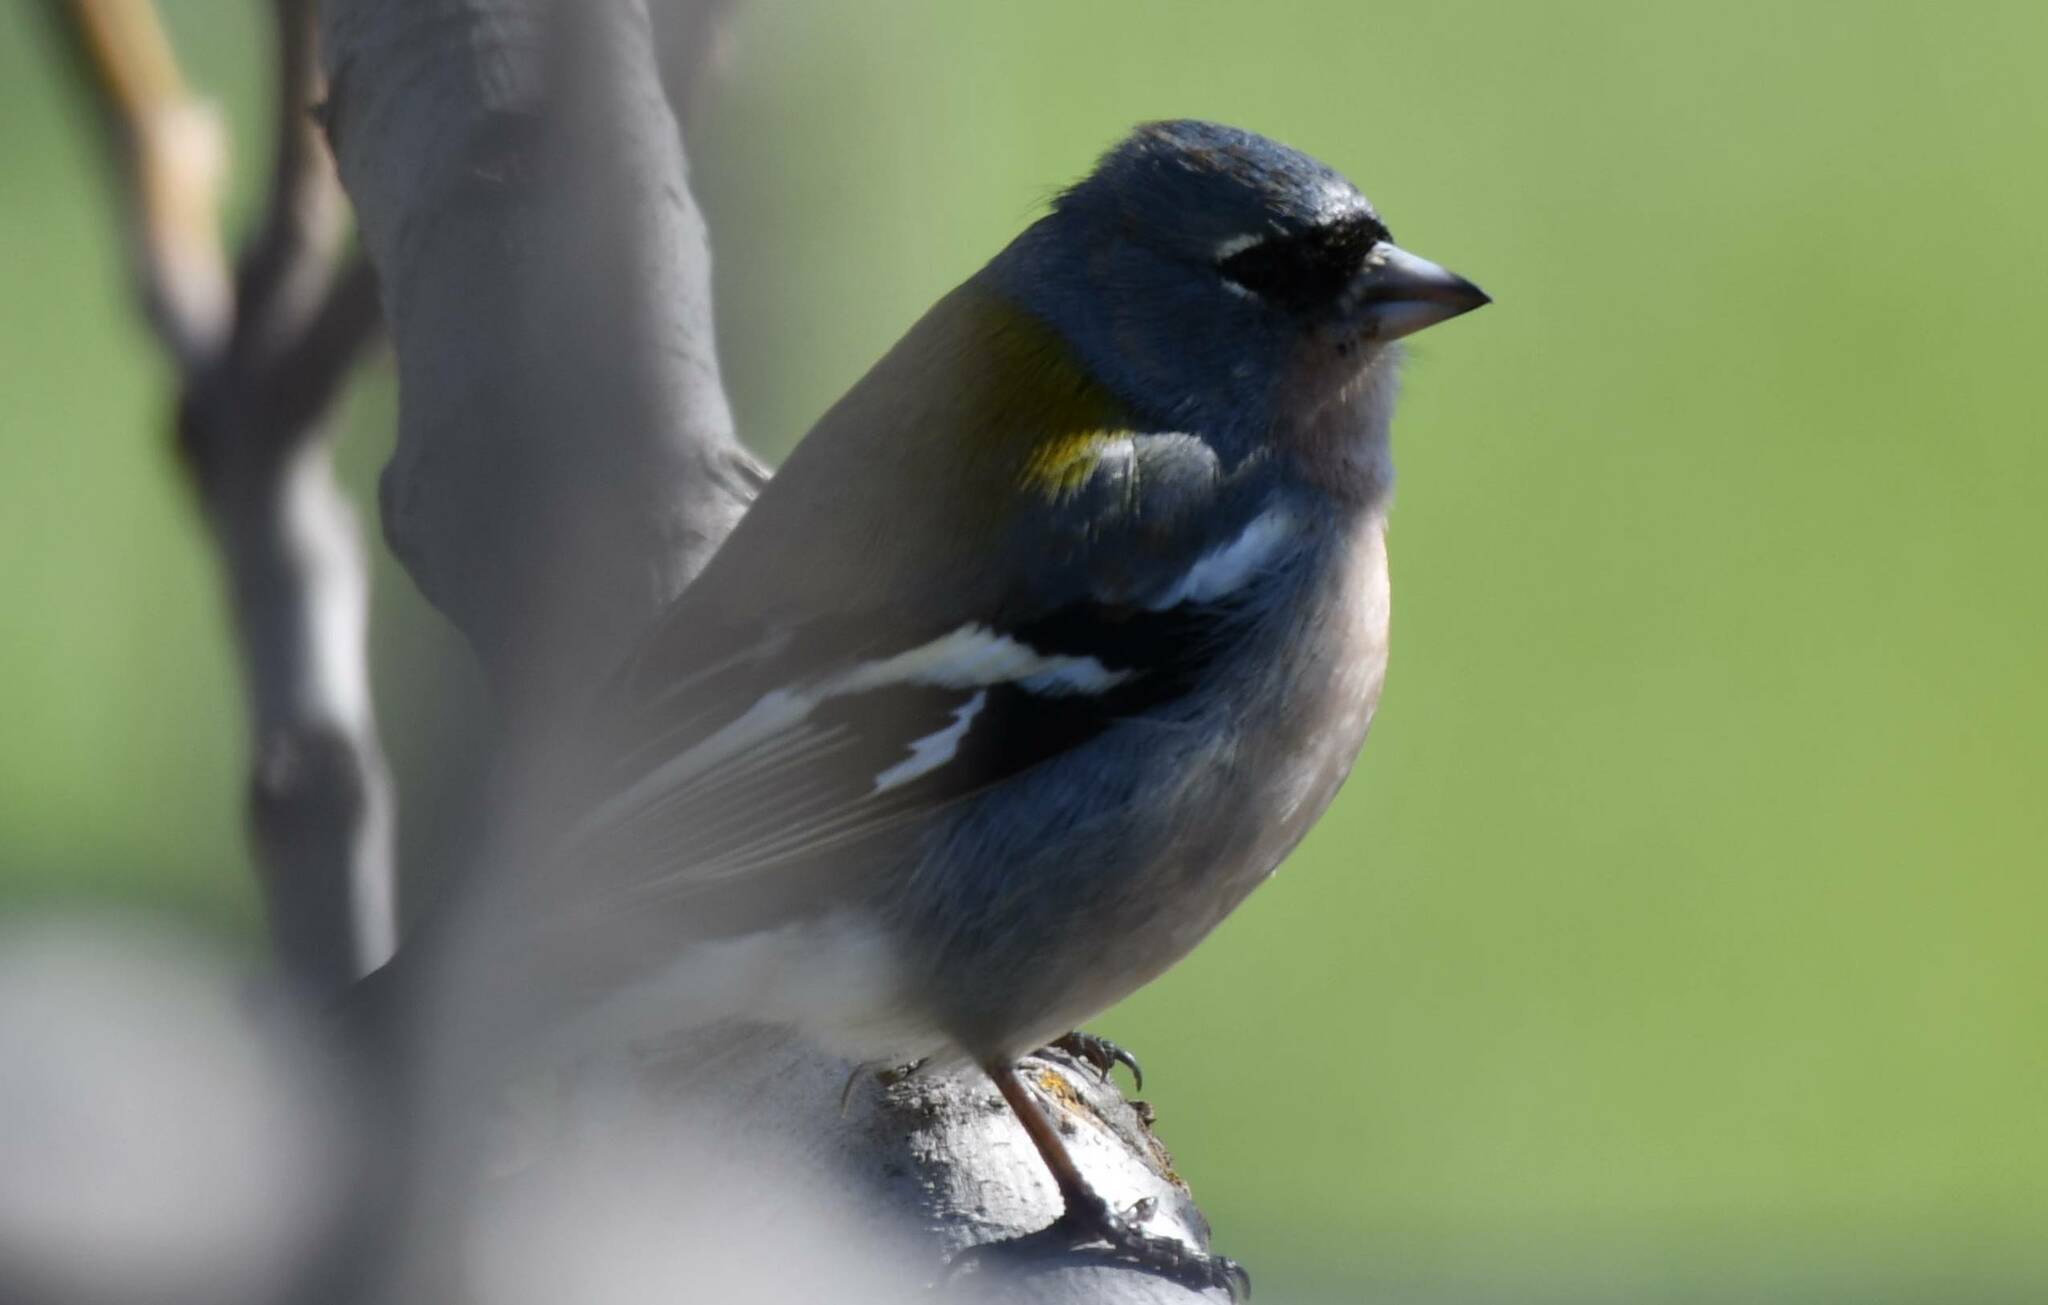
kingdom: Animalia
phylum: Chordata
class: Aves
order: Passeriformes
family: Fringillidae
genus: Fringilla
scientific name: Fringilla spodiogenys
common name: African chaffinch
